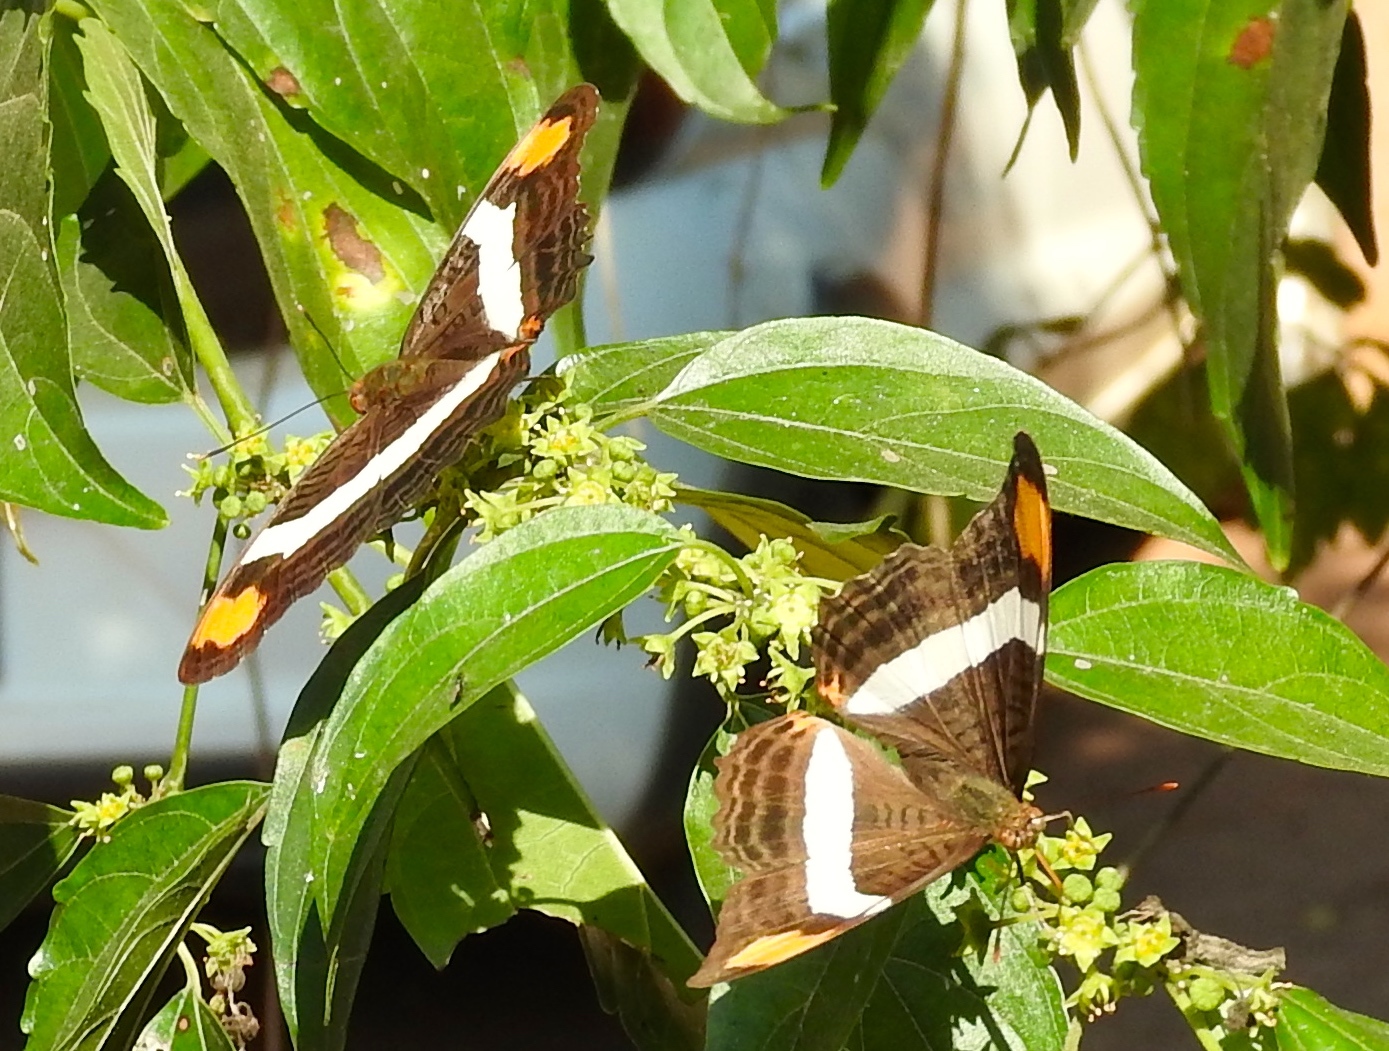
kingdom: Animalia
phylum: Arthropoda
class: Insecta
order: Lepidoptera
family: Nymphalidae
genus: Limenitis
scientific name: Limenitis fessonia
